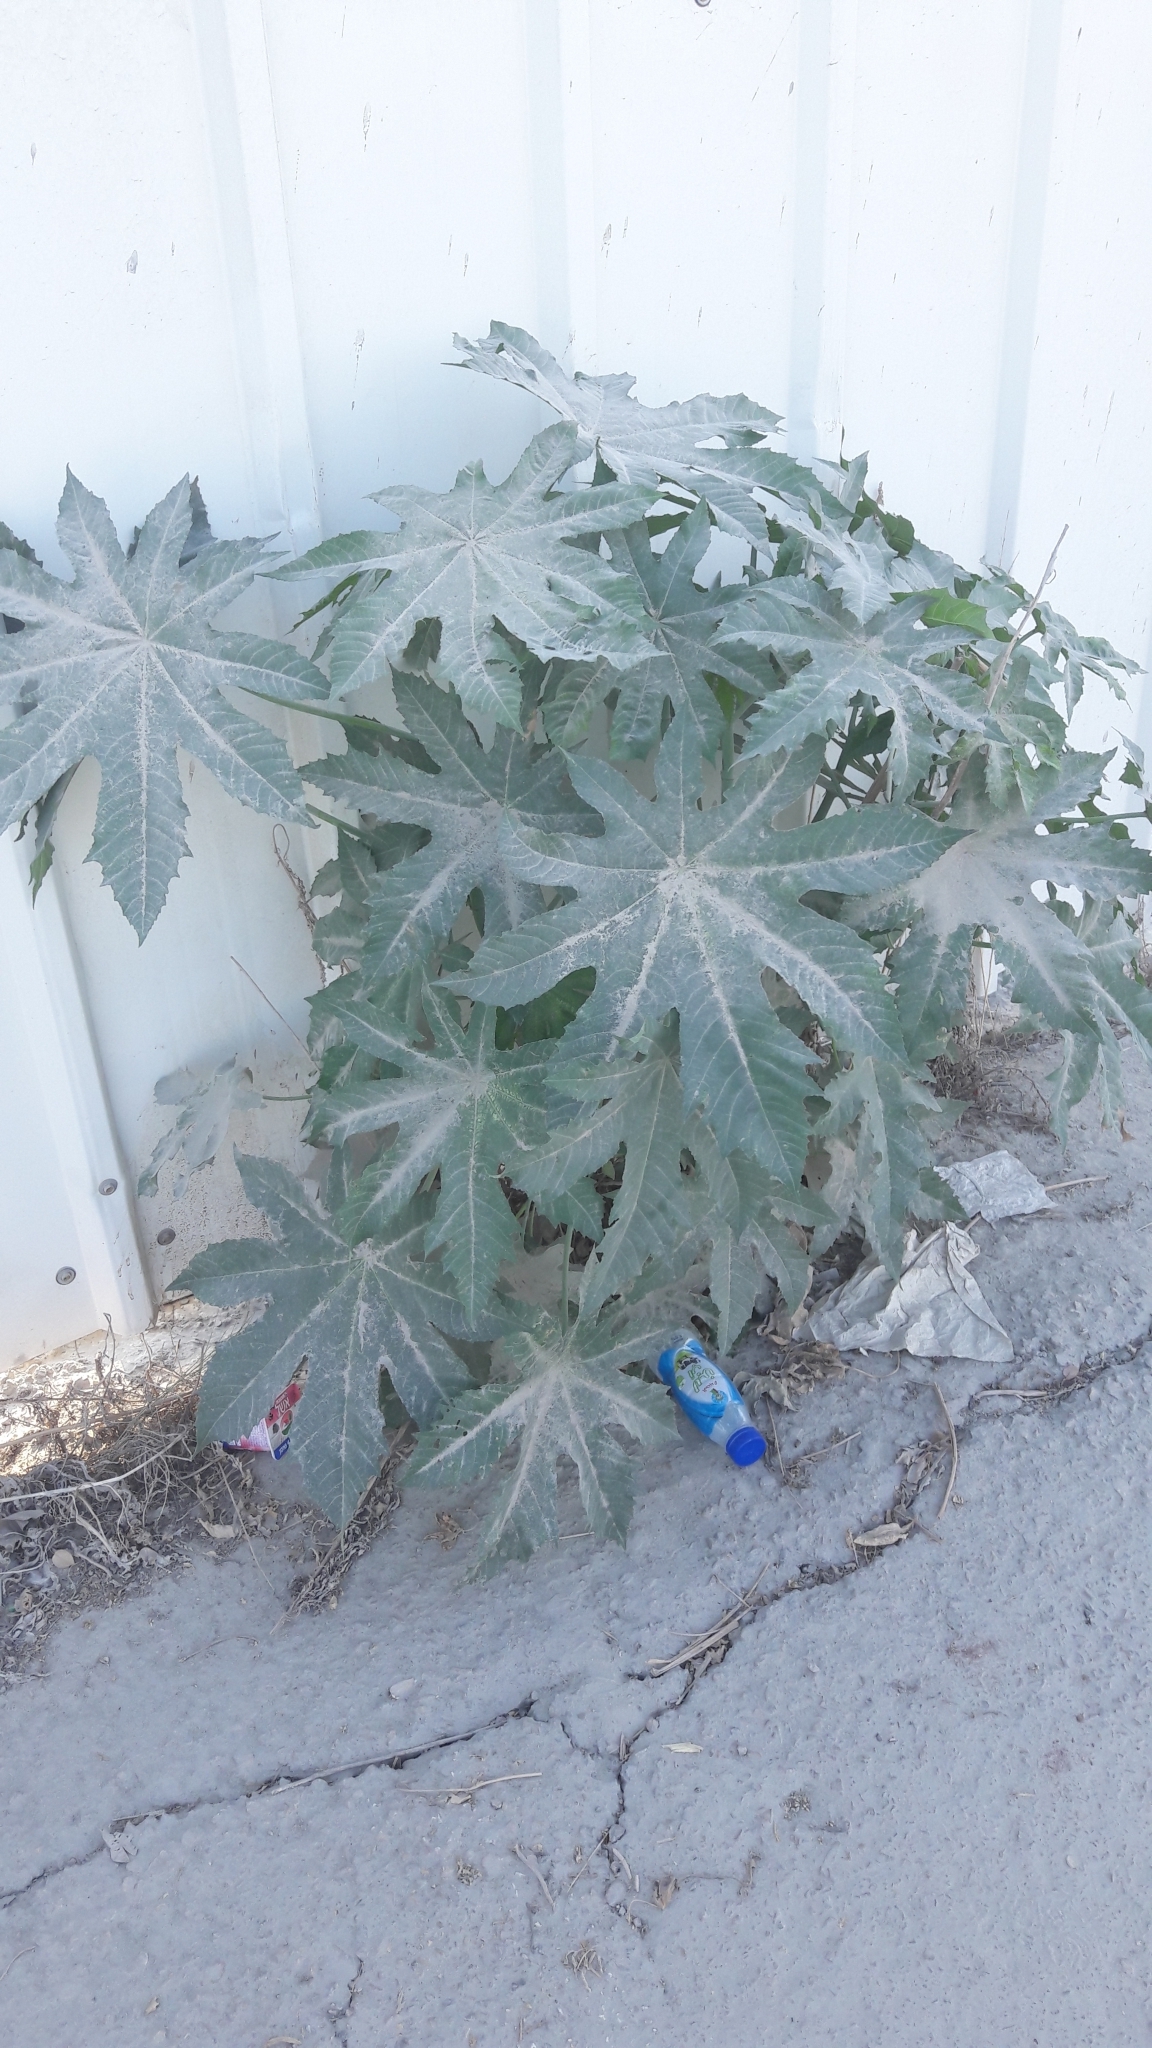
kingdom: Plantae
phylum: Tracheophyta
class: Magnoliopsida
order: Malpighiales
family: Euphorbiaceae
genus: Ricinus
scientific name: Ricinus communis
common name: Castor-oil-plant
